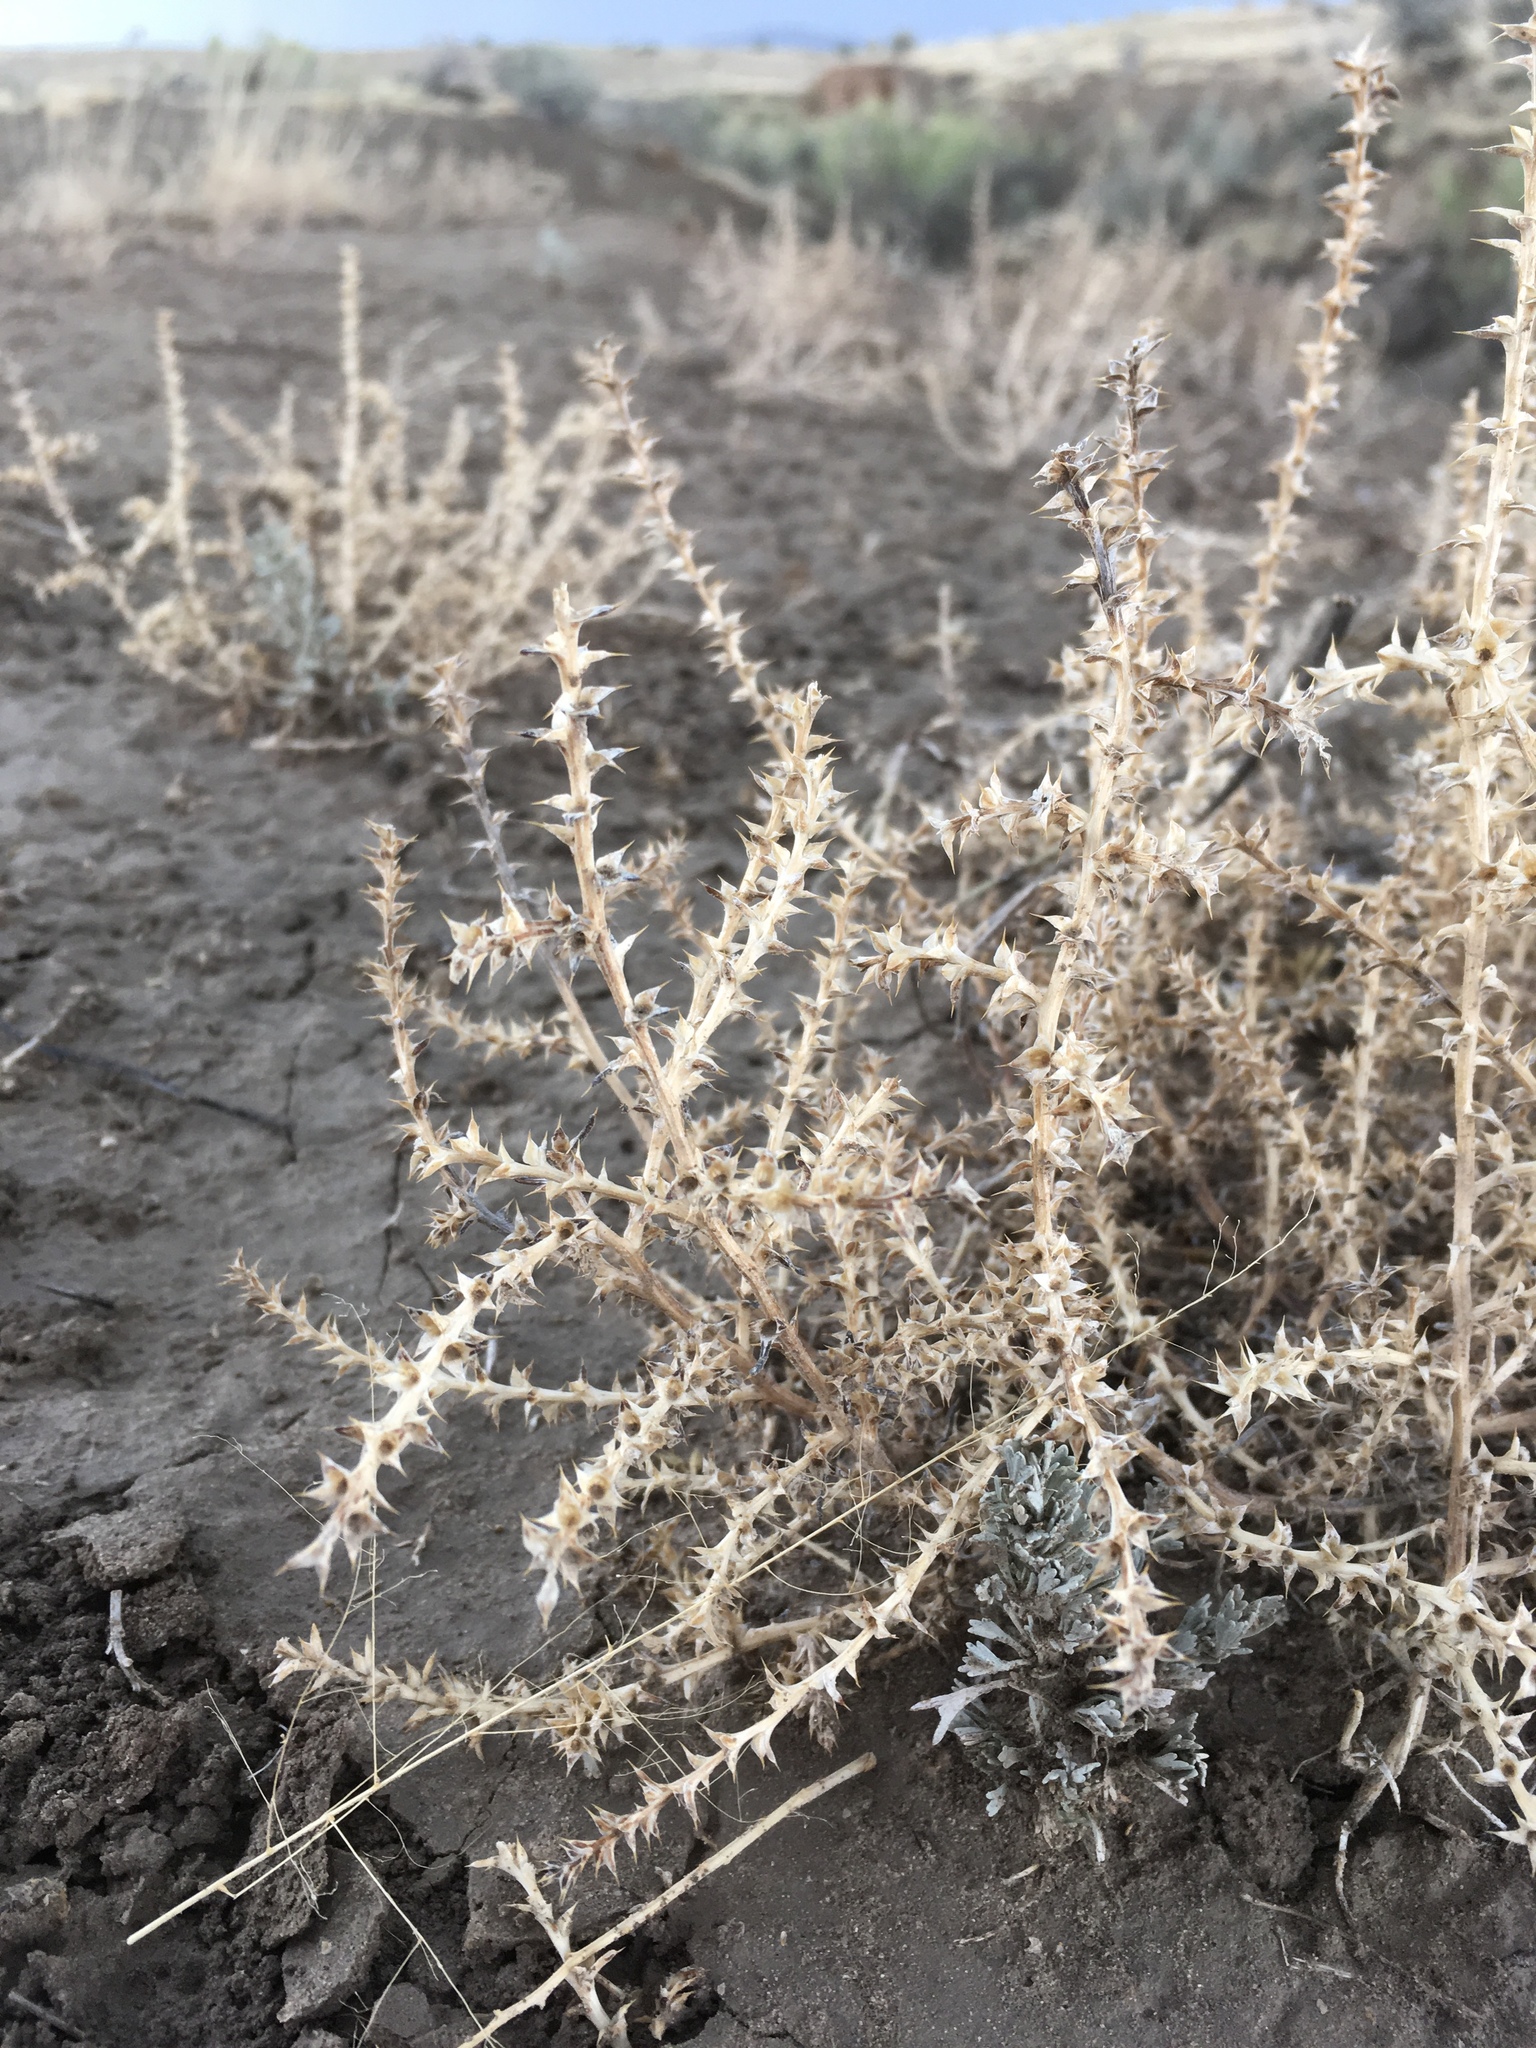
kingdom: Plantae
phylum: Tracheophyta
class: Magnoliopsida
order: Caryophyllales
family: Amaranthaceae
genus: Salsola
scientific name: Salsola tragus
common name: Prickly russian thistle
